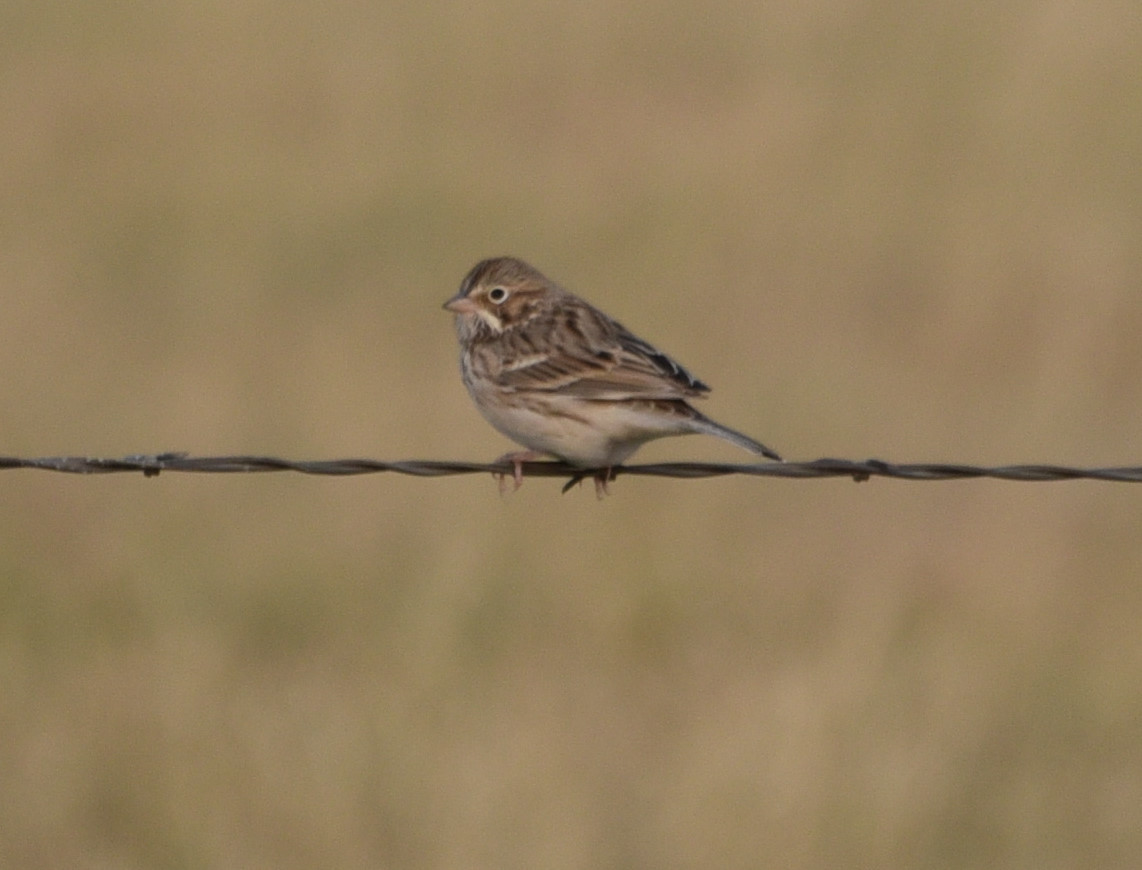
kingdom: Animalia
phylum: Chordata
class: Aves
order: Passeriformes
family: Passerellidae
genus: Pooecetes
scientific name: Pooecetes gramineus
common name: Vesper sparrow
